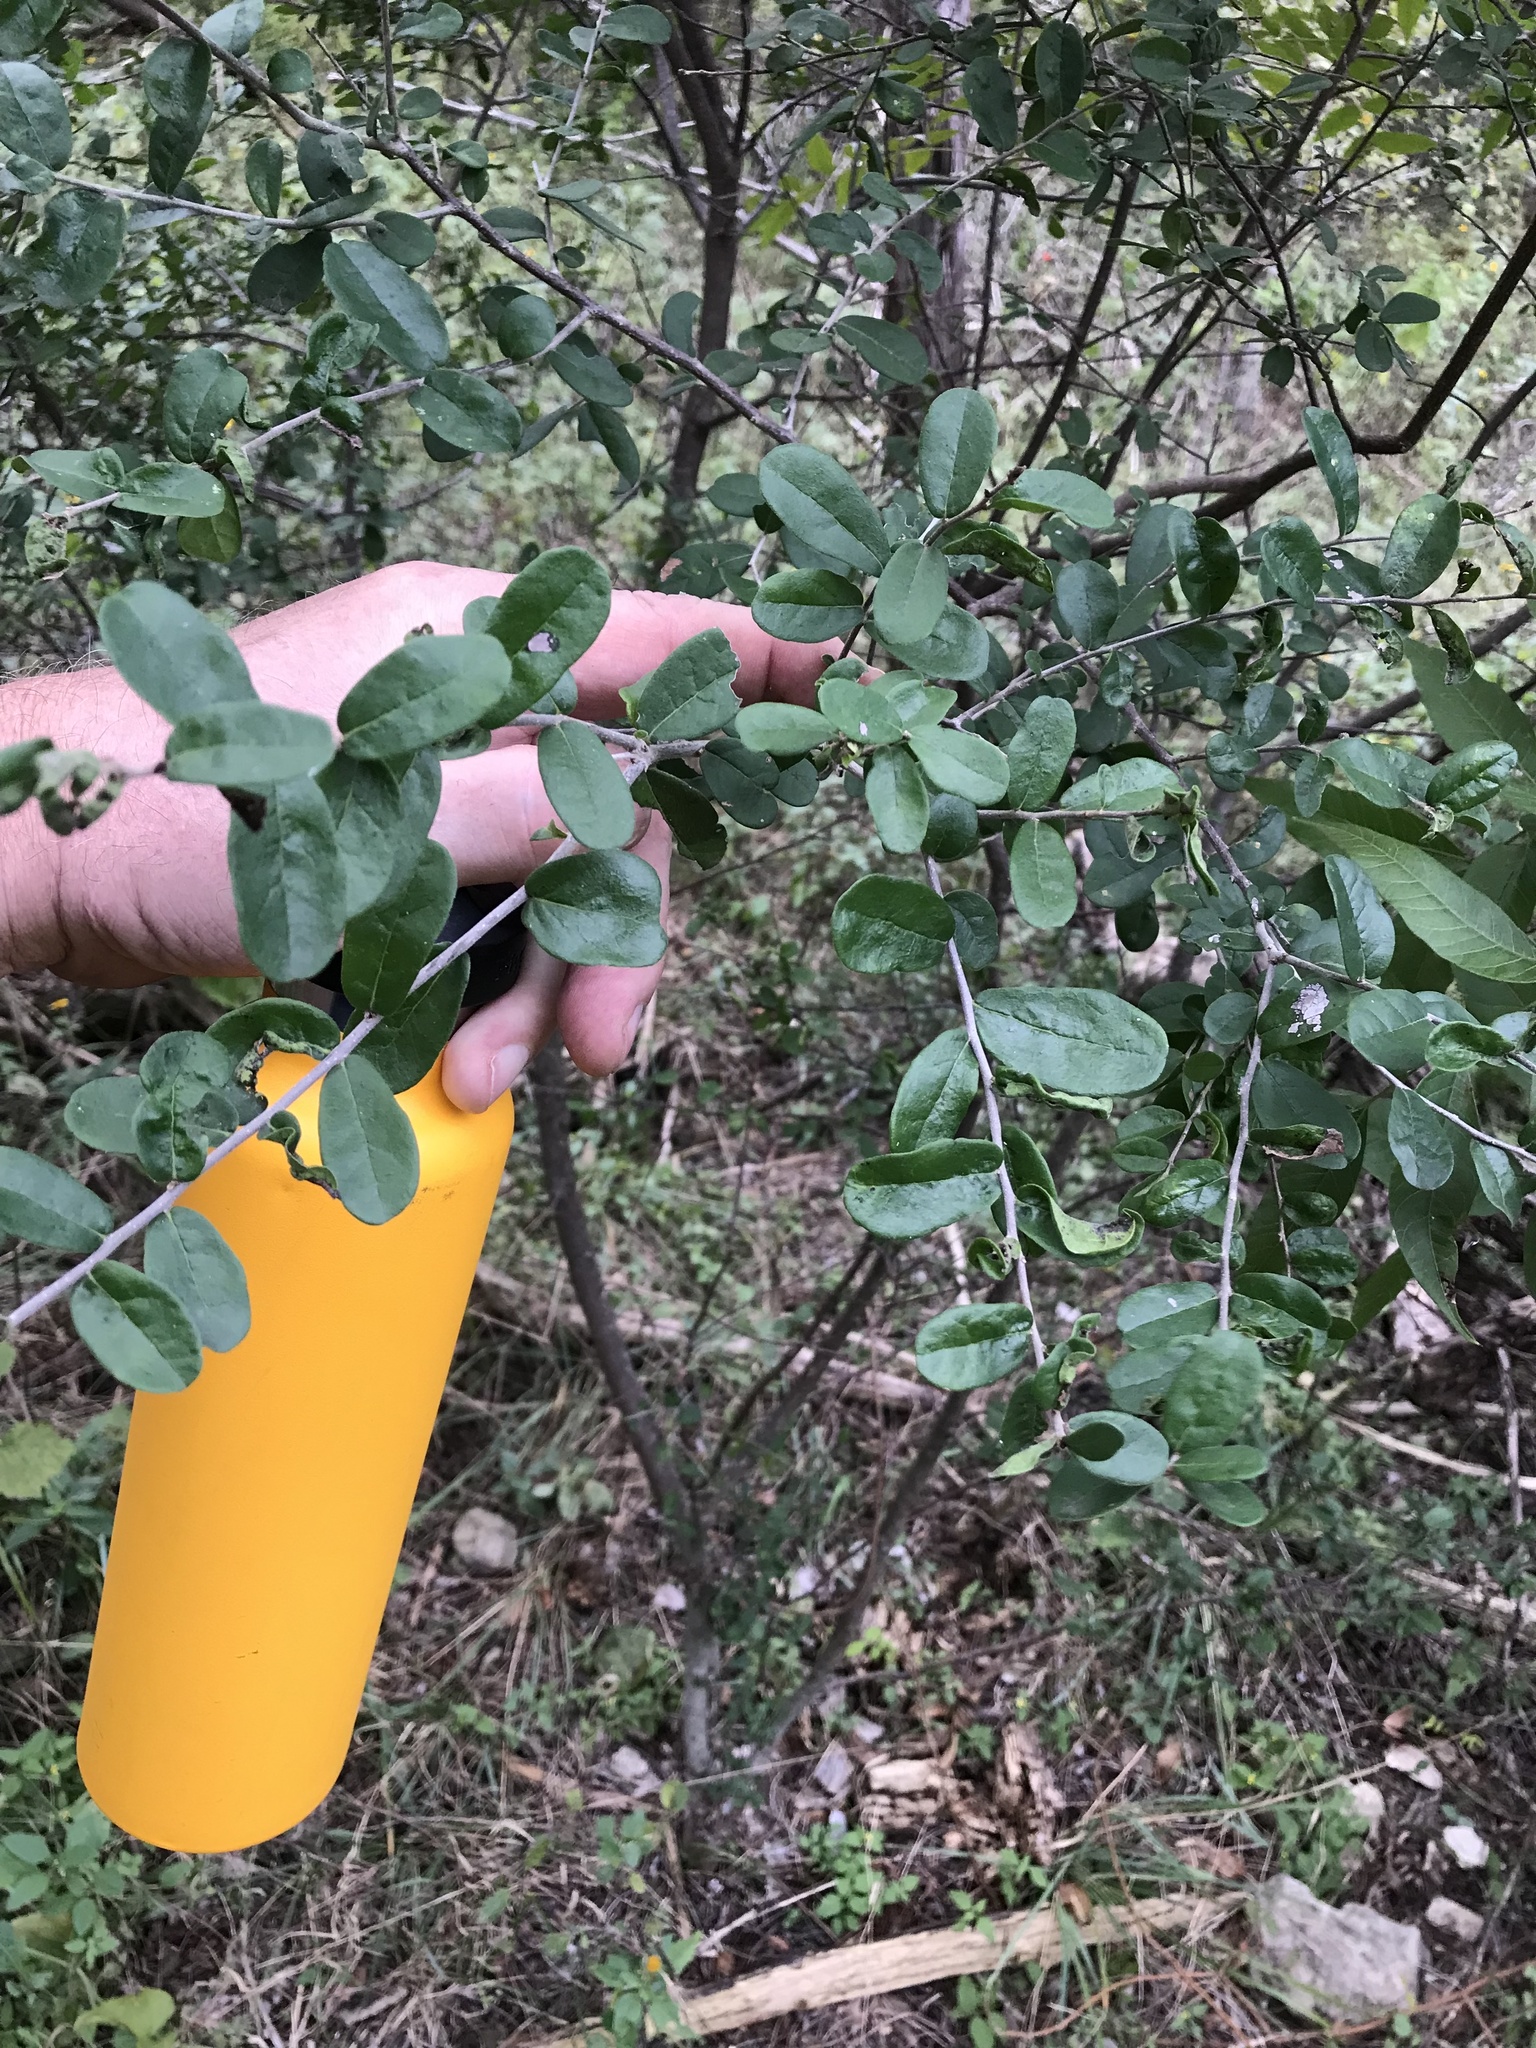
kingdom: Plantae
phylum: Tracheophyta
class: Magnoliopsida
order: Ericales
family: Ebenaceae
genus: Diospyros
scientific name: Diospyros texana
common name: Texas persimmon
